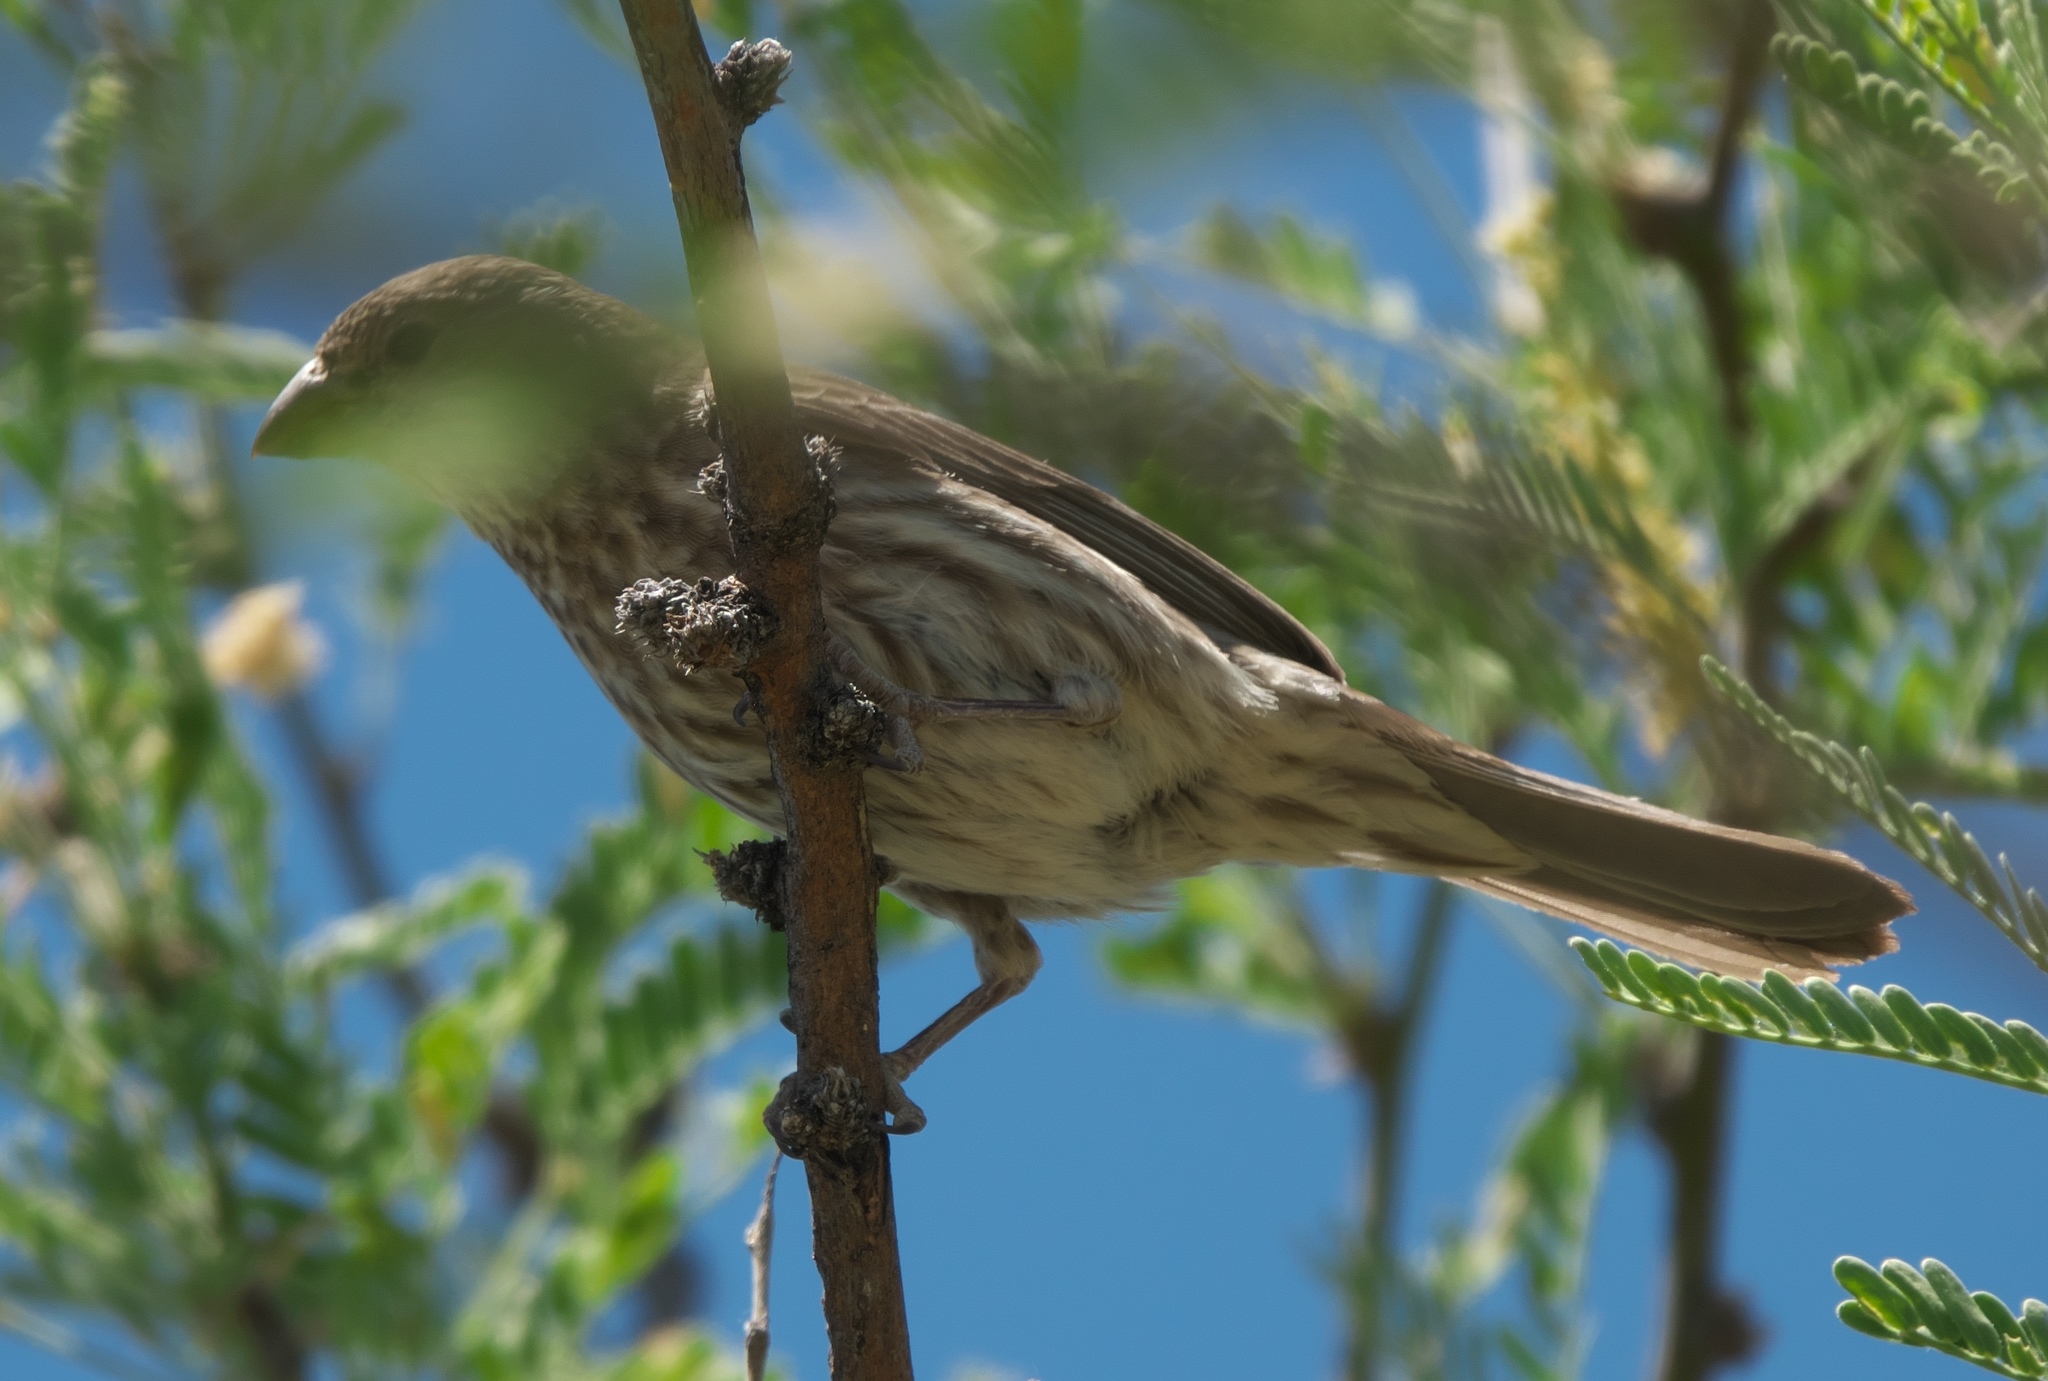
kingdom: Animalia
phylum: Chordata
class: Aves
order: Passeriformes
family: Fringillidae
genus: Haemorhous
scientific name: Haemorhous mexicanus
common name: House finch
